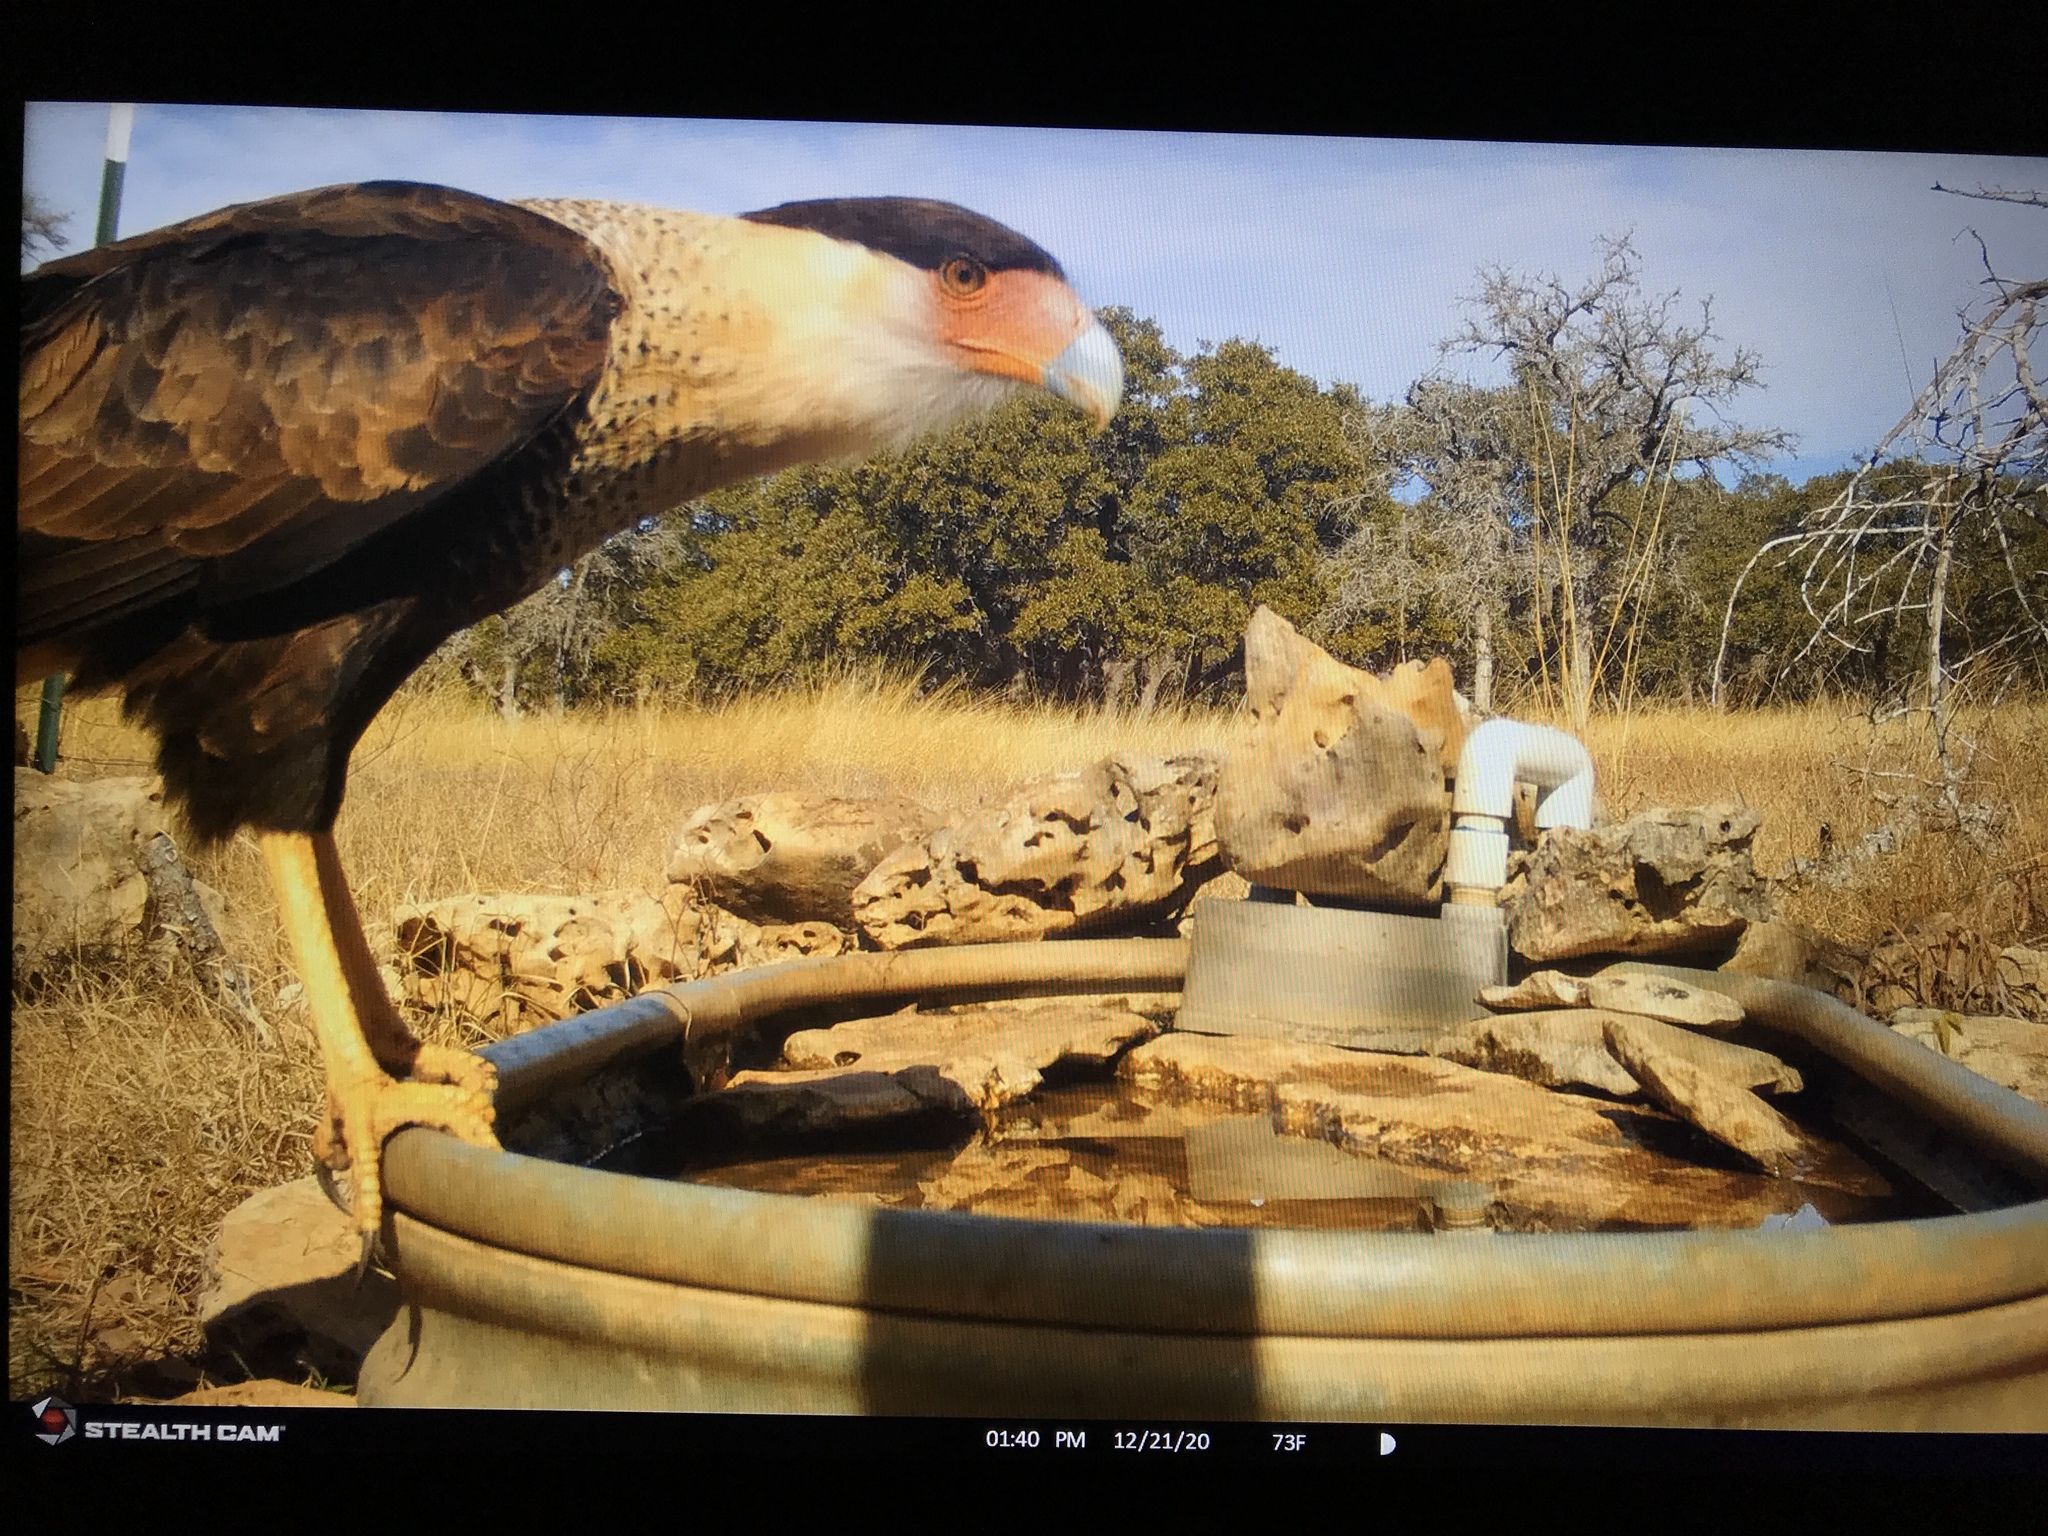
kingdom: Animalia
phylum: Chordata
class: Aves
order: Falconiformes
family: Falconidae
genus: Caracara
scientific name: Caracara plancus
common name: Southern caracara
